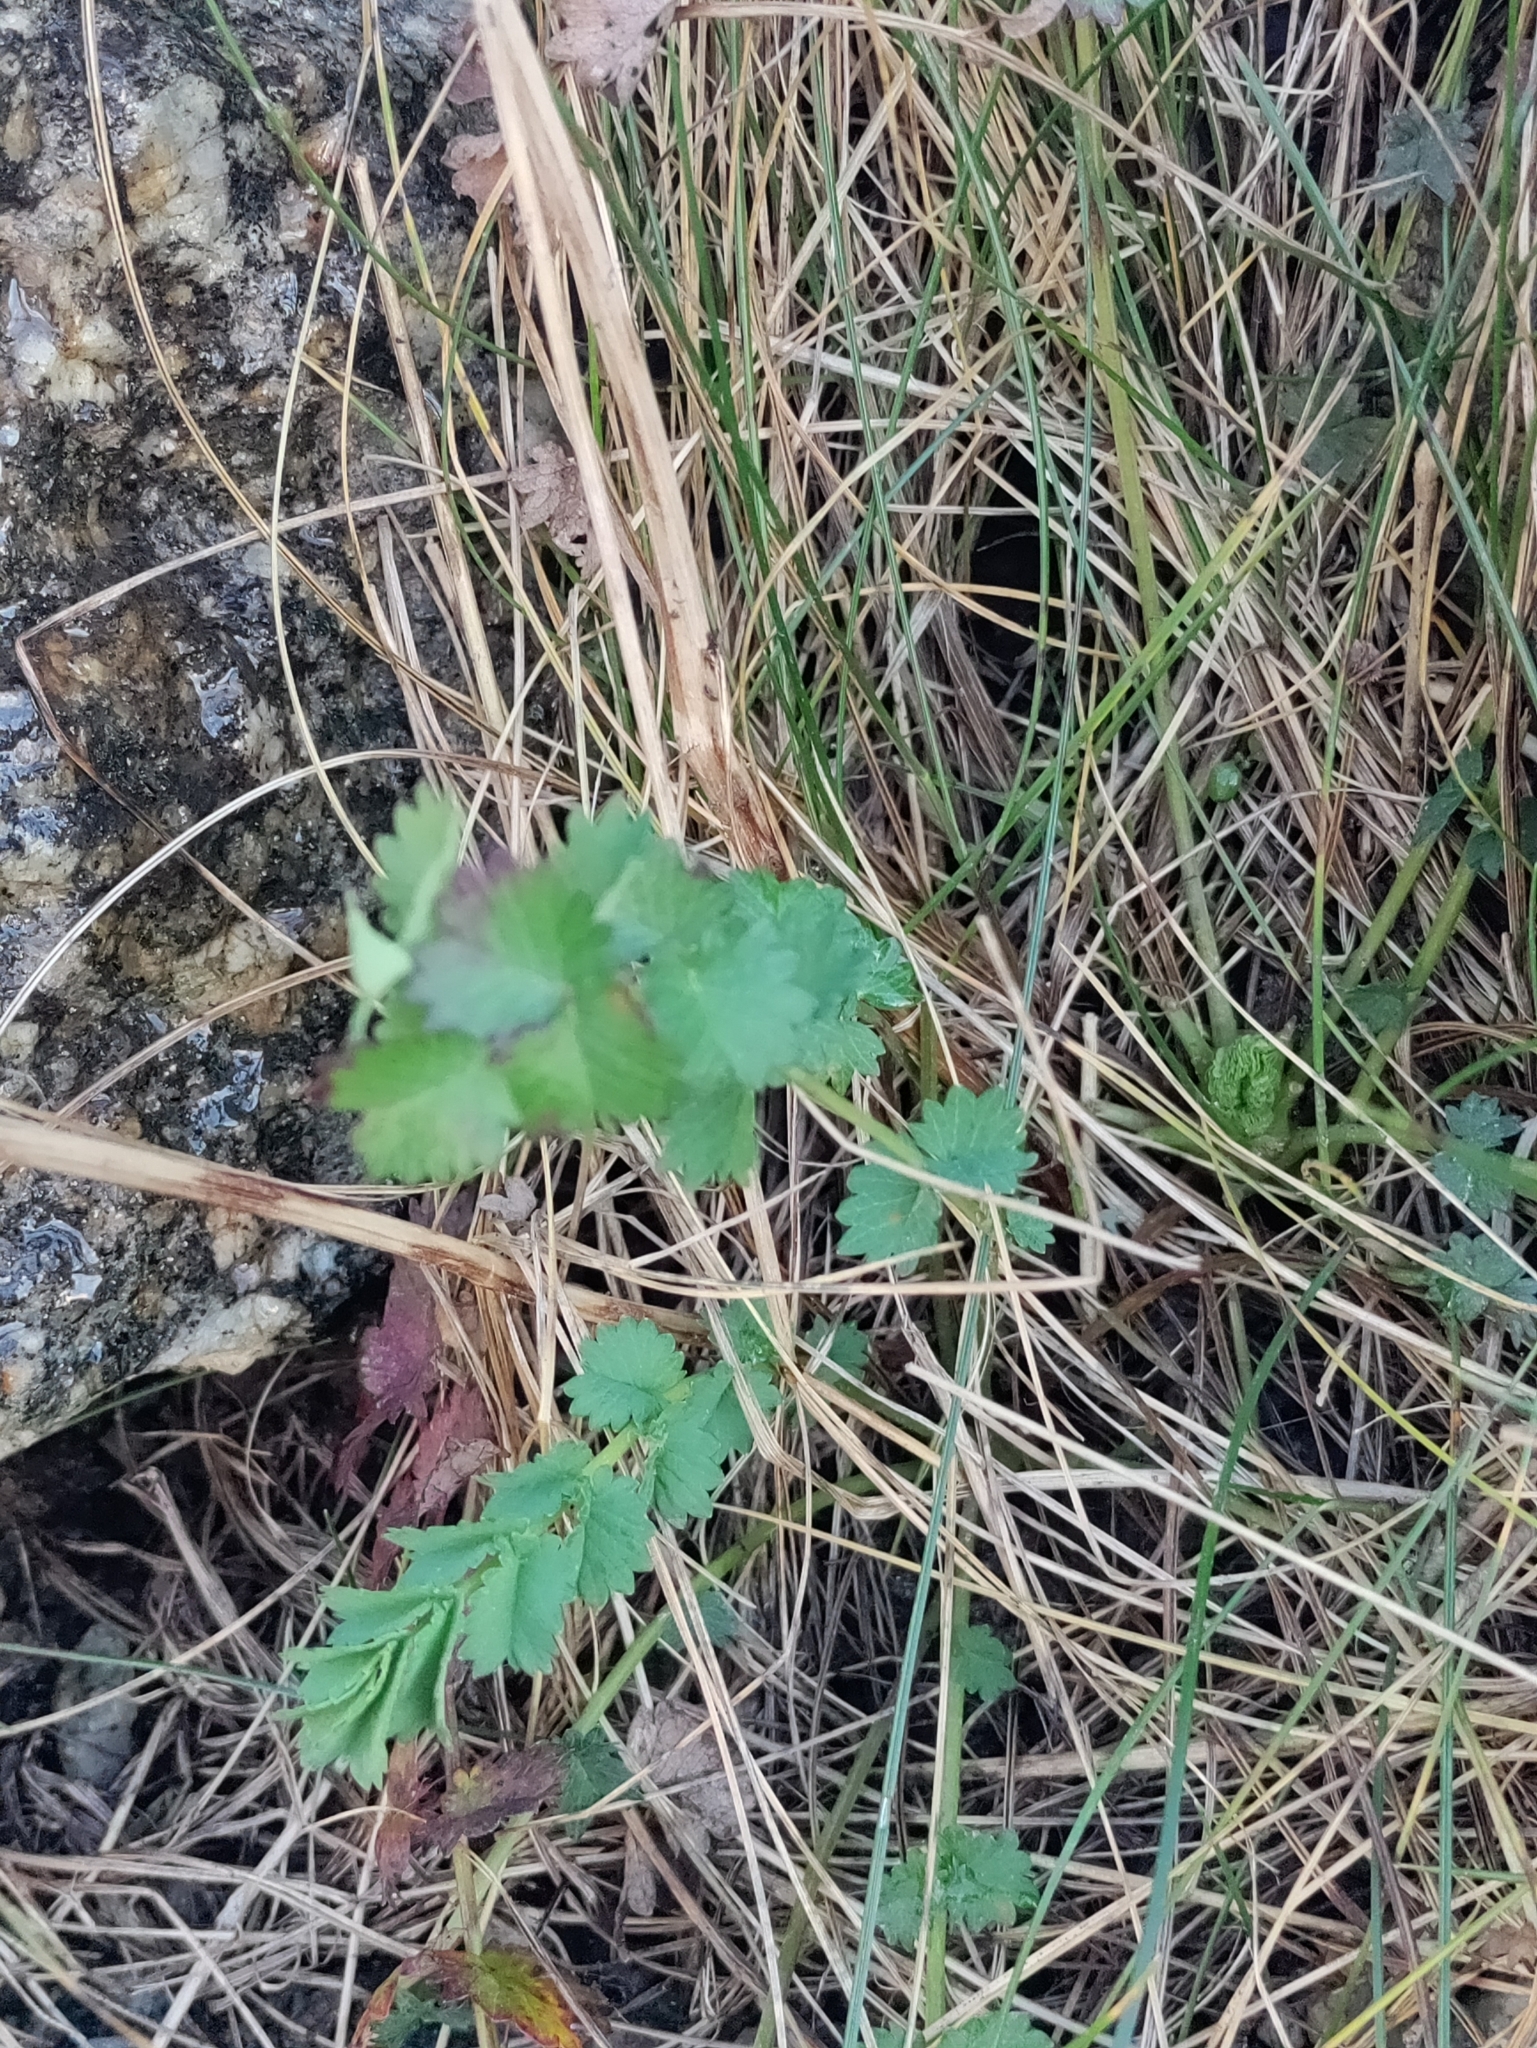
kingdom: Plantae
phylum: Tracheophyta
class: Magnoliopsida
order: Rosales
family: Rosaceae
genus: Poterium
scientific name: Poterium sanguisorba
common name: Salad burnet
